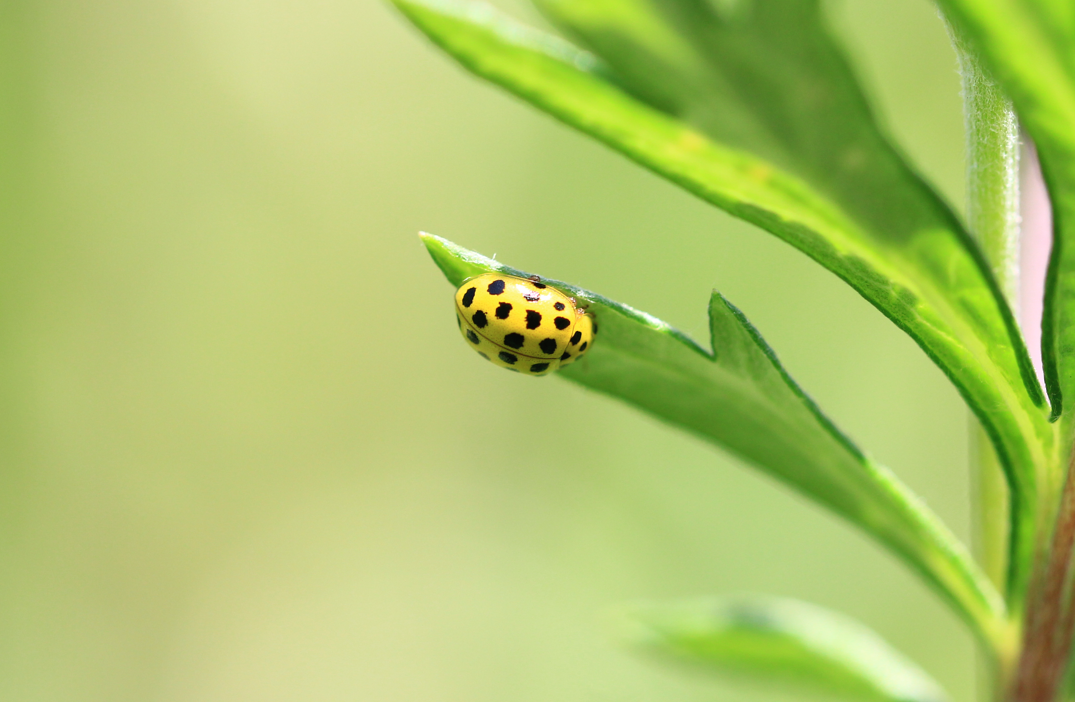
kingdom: Animalia
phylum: Arthropoda
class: Insecta
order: Coleoptera
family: Coccinellidae
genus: Psyllobora
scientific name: Psyllobora vigintiduopunctata
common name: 22-spot ladybird
